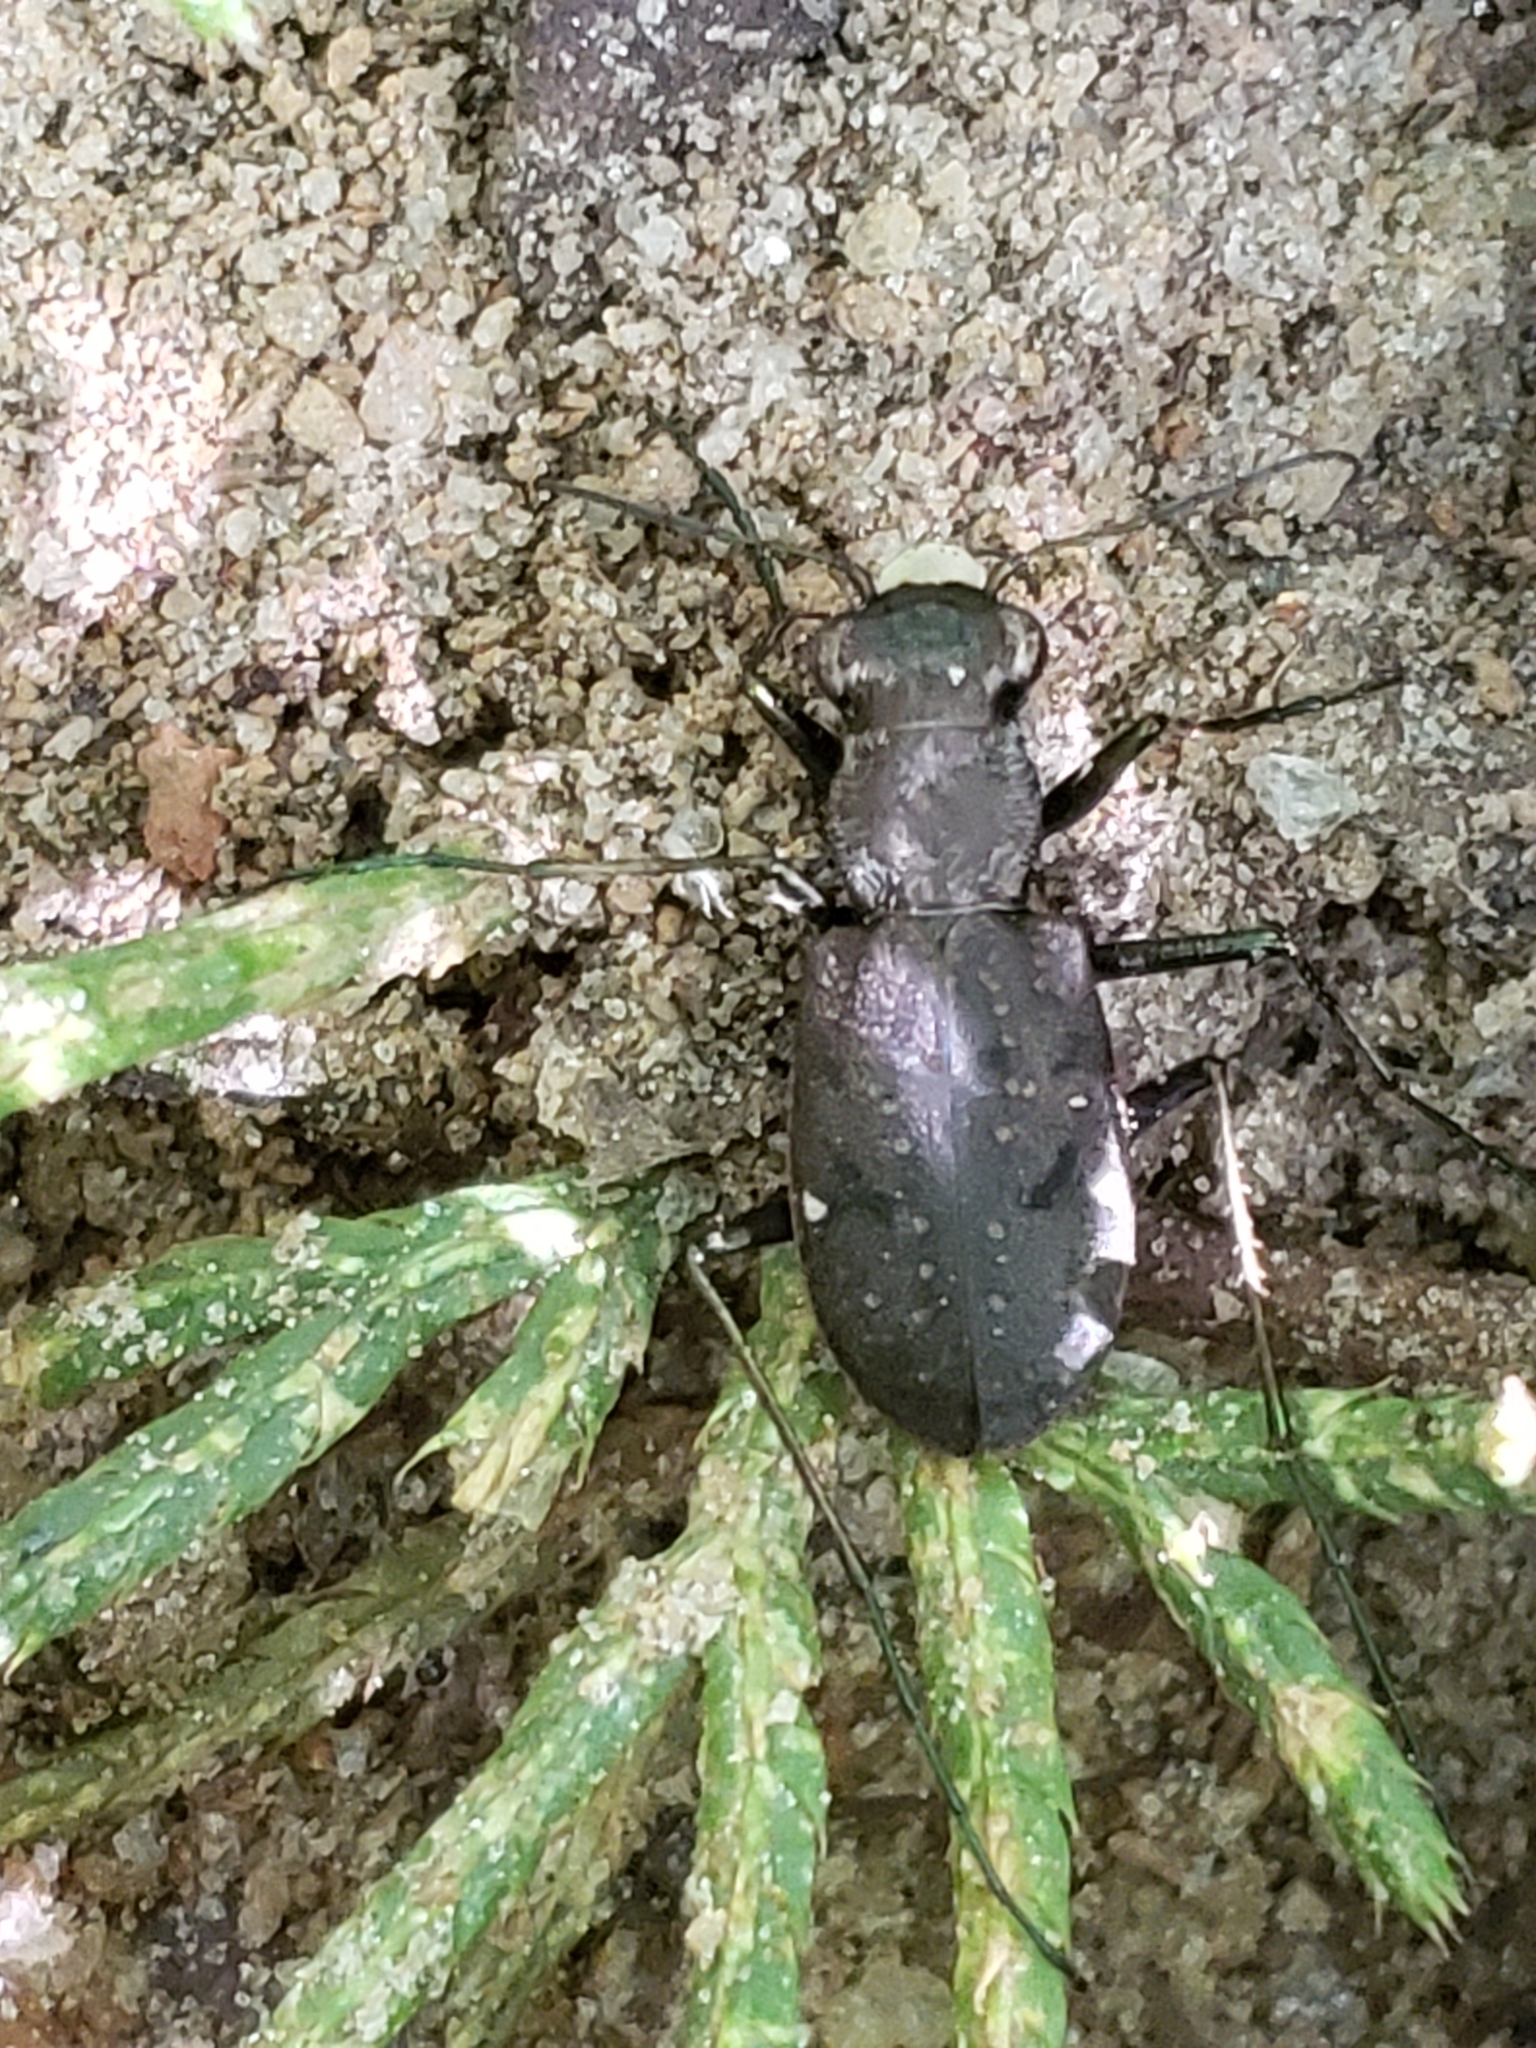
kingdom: Animalia
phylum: Arthropoda
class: Insecta
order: Coleoptera
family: Carabidae
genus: Cylindera
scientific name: Cylindera unipunctata
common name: One-spotted tiger beetle
